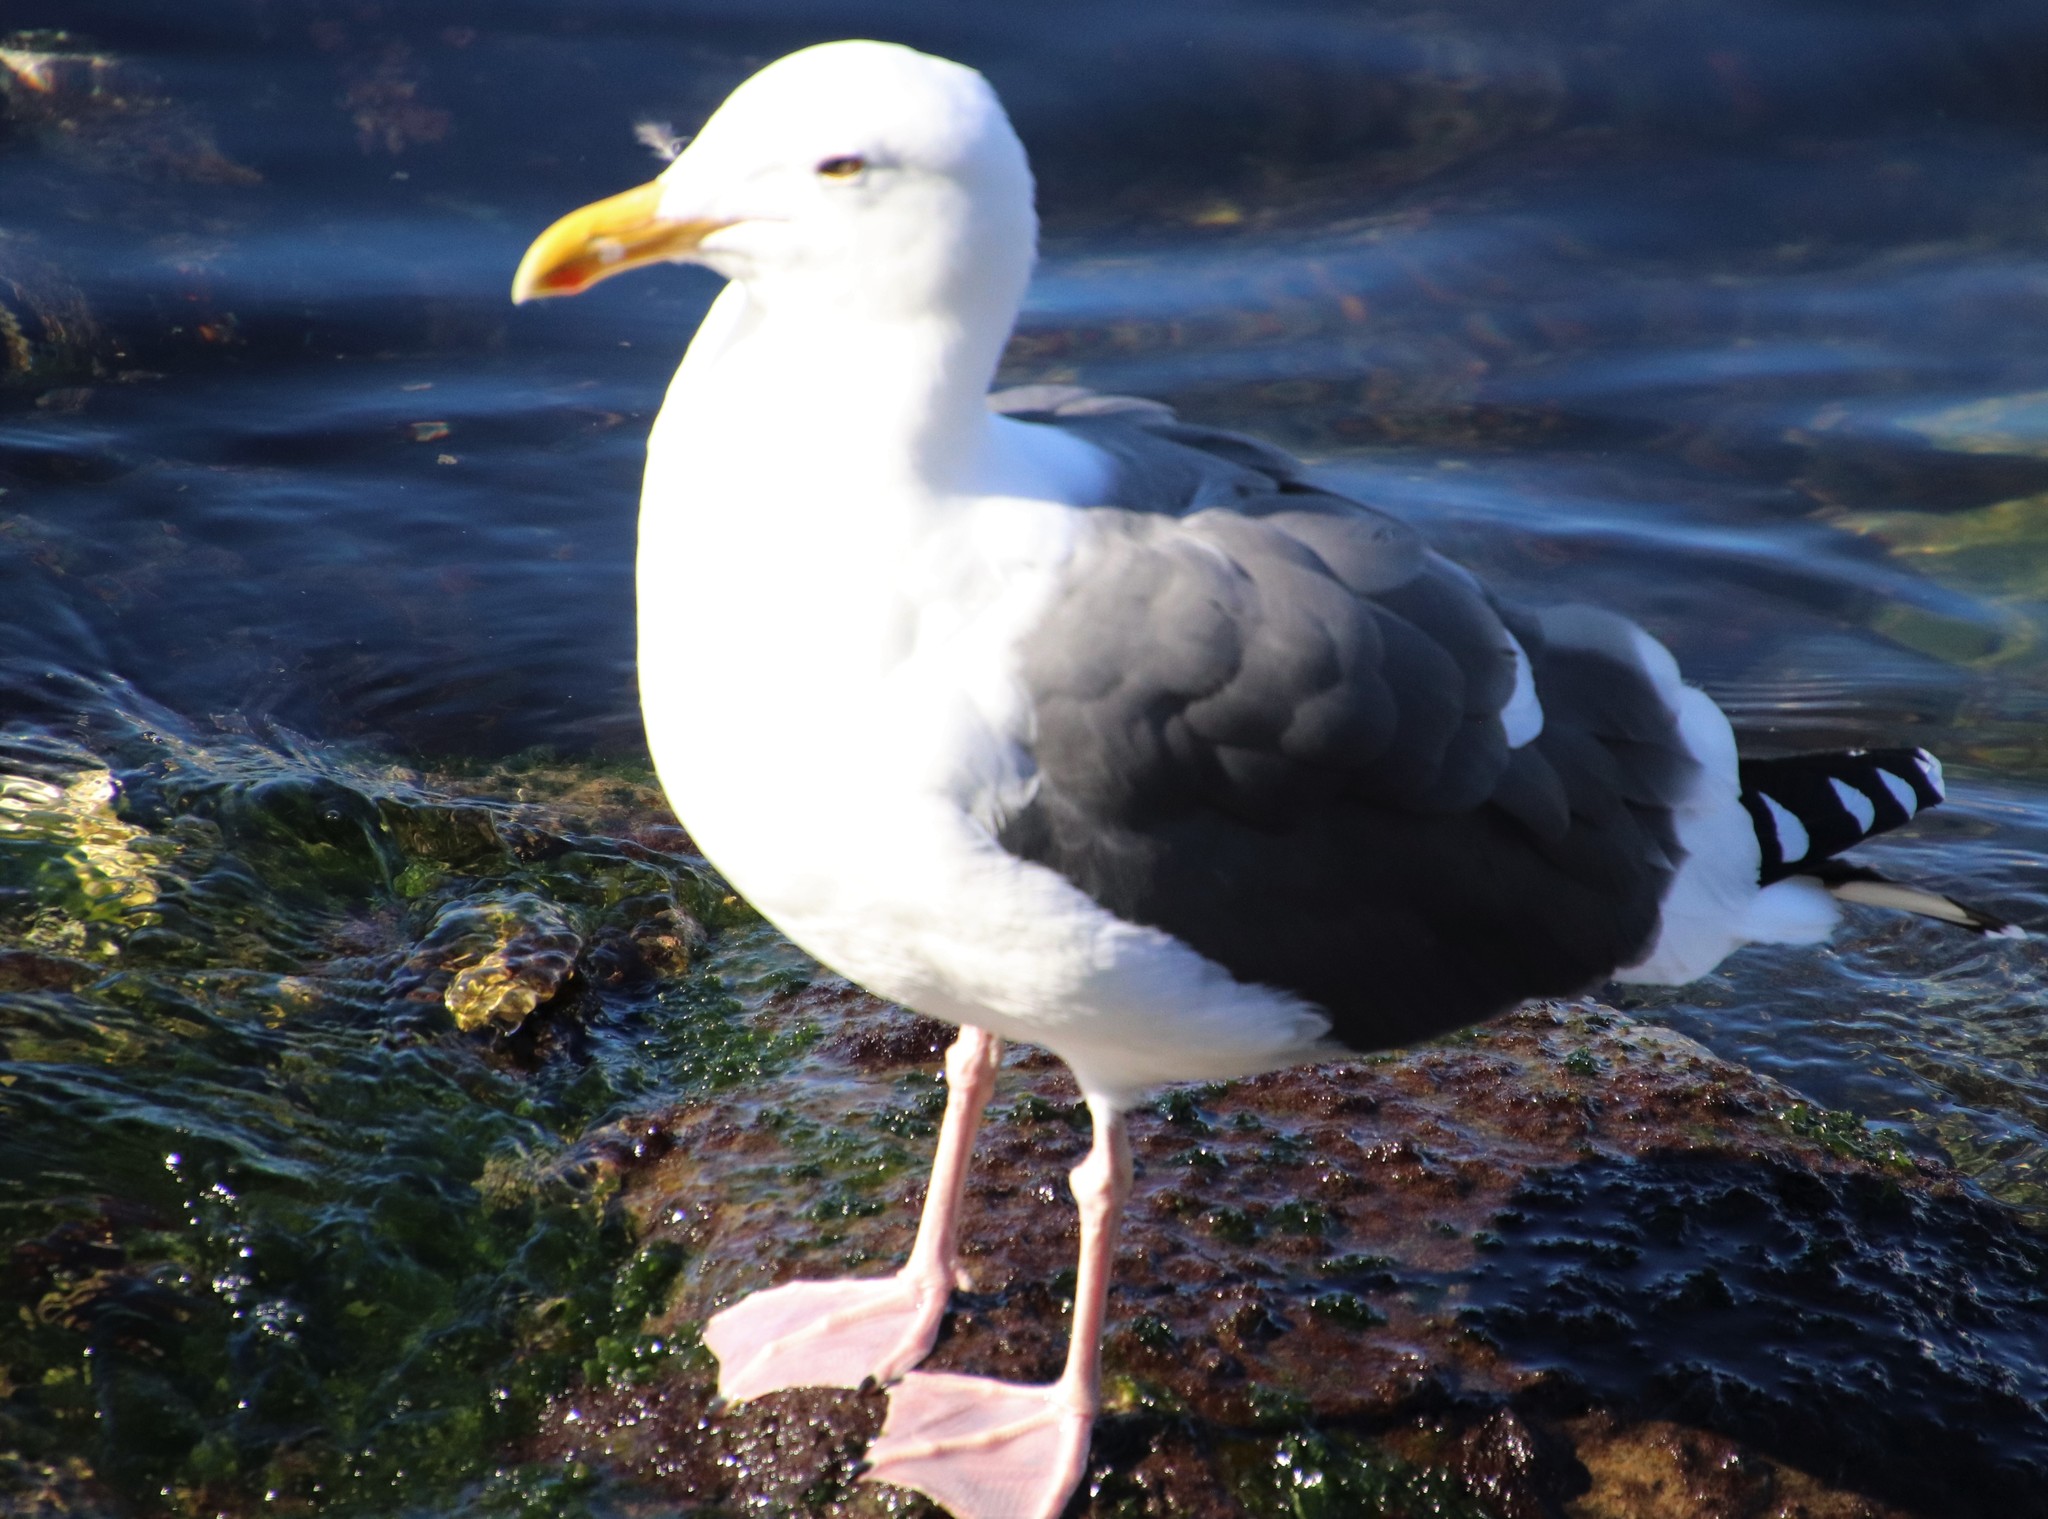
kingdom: Animalia
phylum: Chordata
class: Aves
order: Charadriiformes
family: Laridae
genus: Larus
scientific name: Larus occidentalis
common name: Western gull
